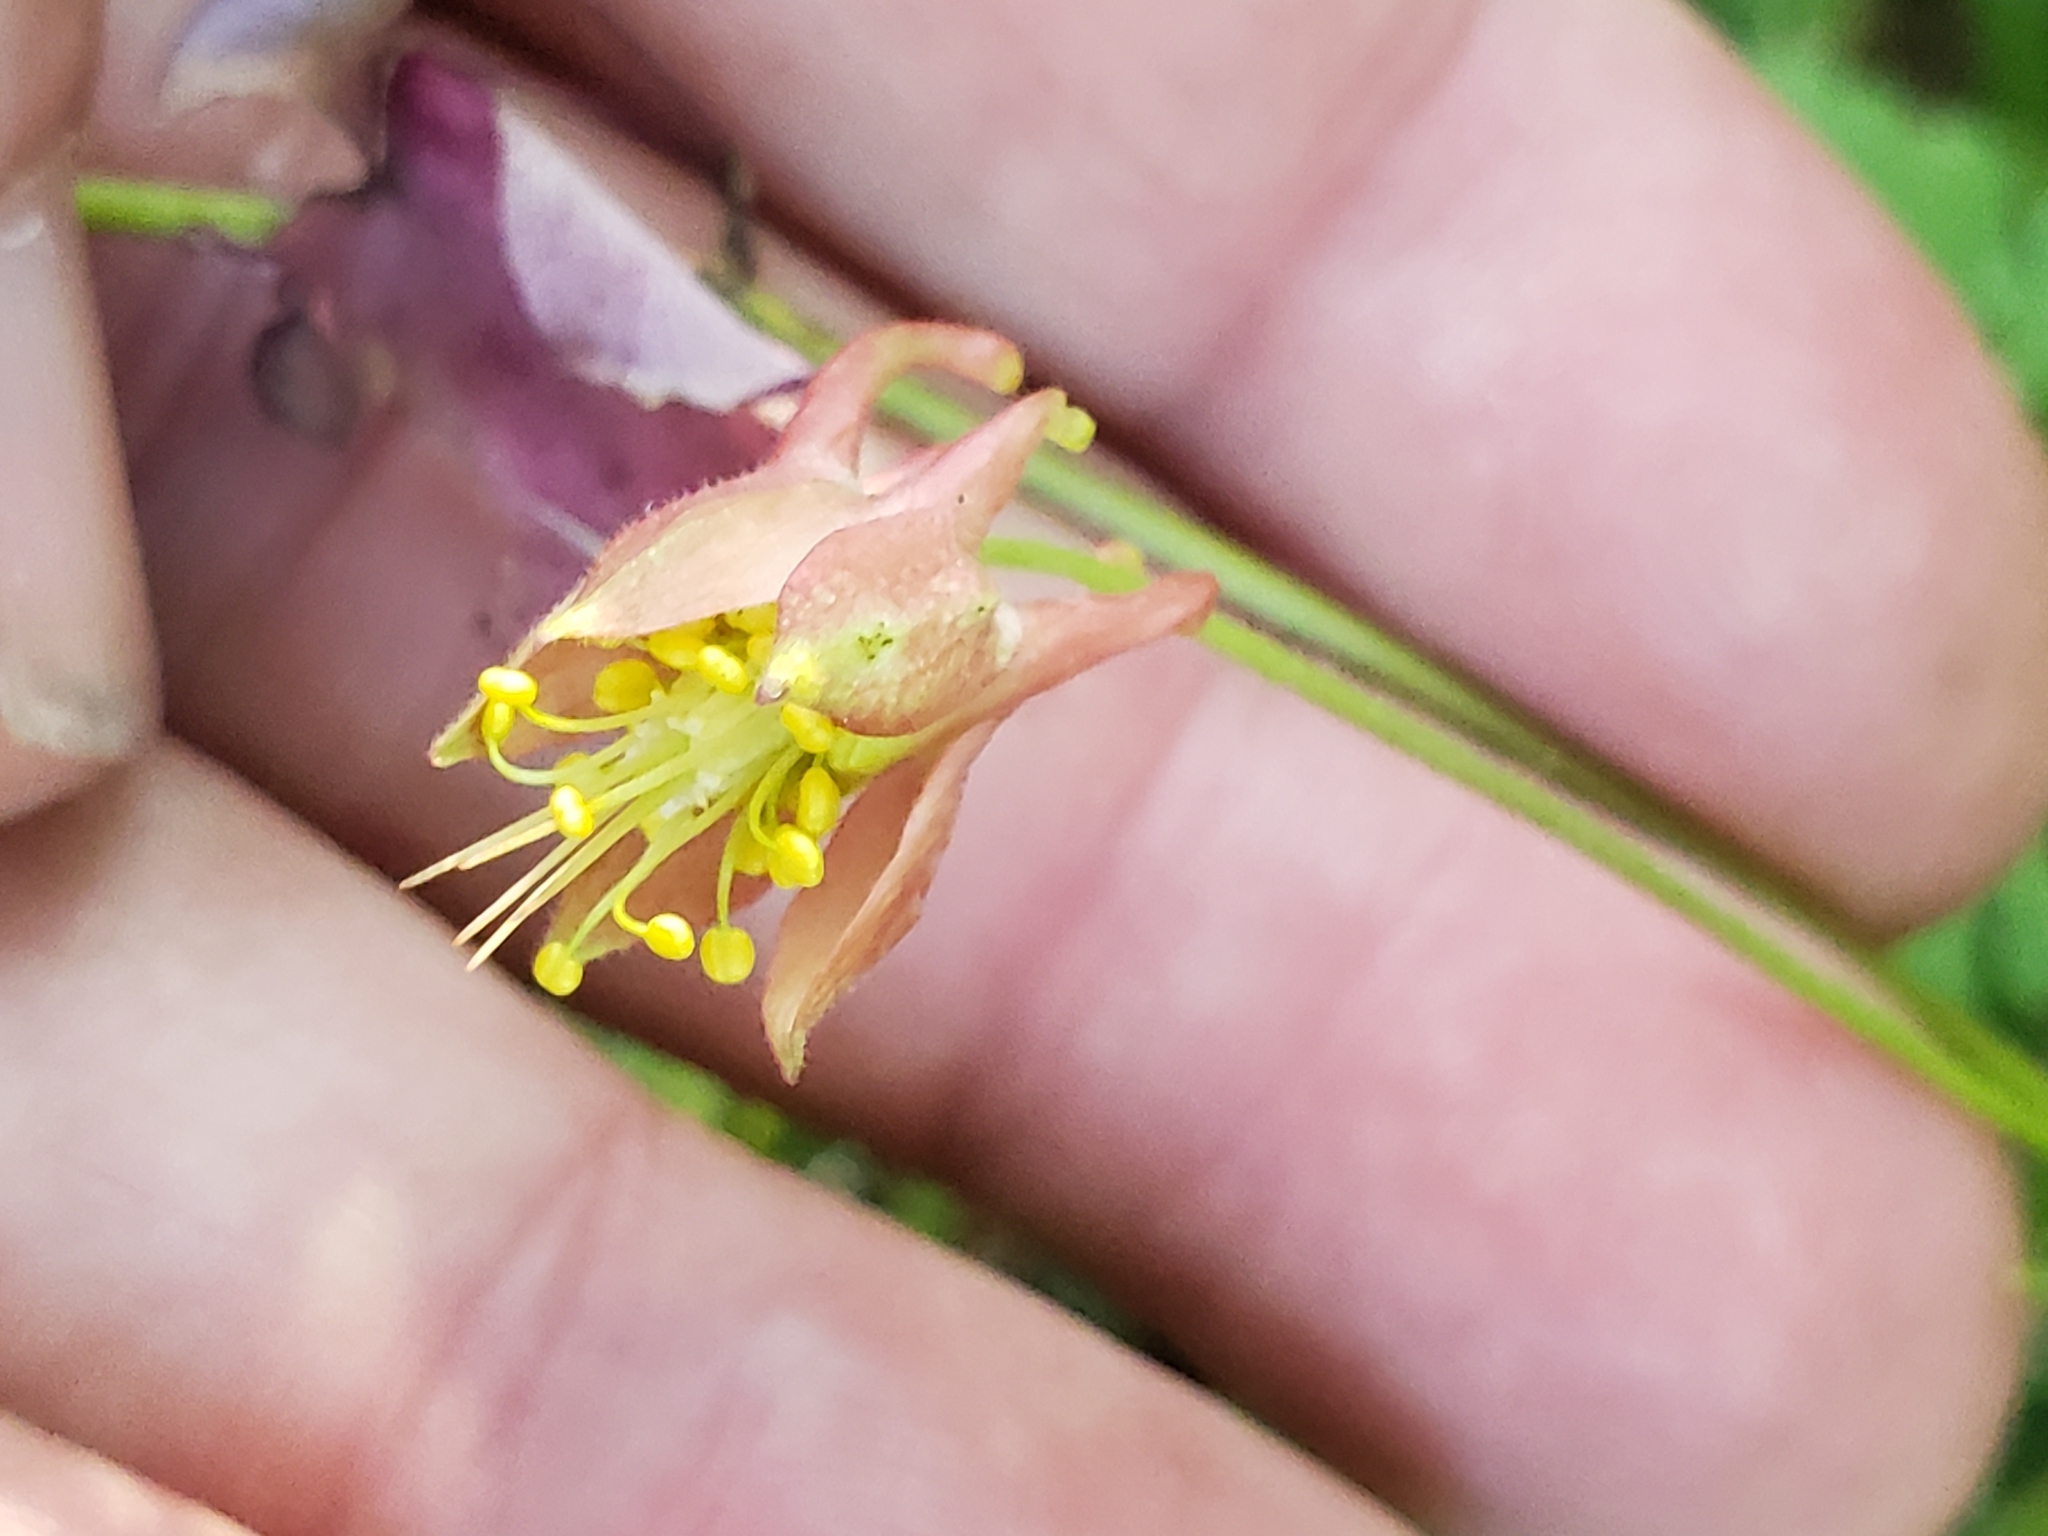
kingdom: Plantae
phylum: Tracheophyta
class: Magnoliopsida
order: Ranunculales
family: Ranunculaceae
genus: Aquilegia
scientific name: Aquilegia canadensis
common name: American columbine
